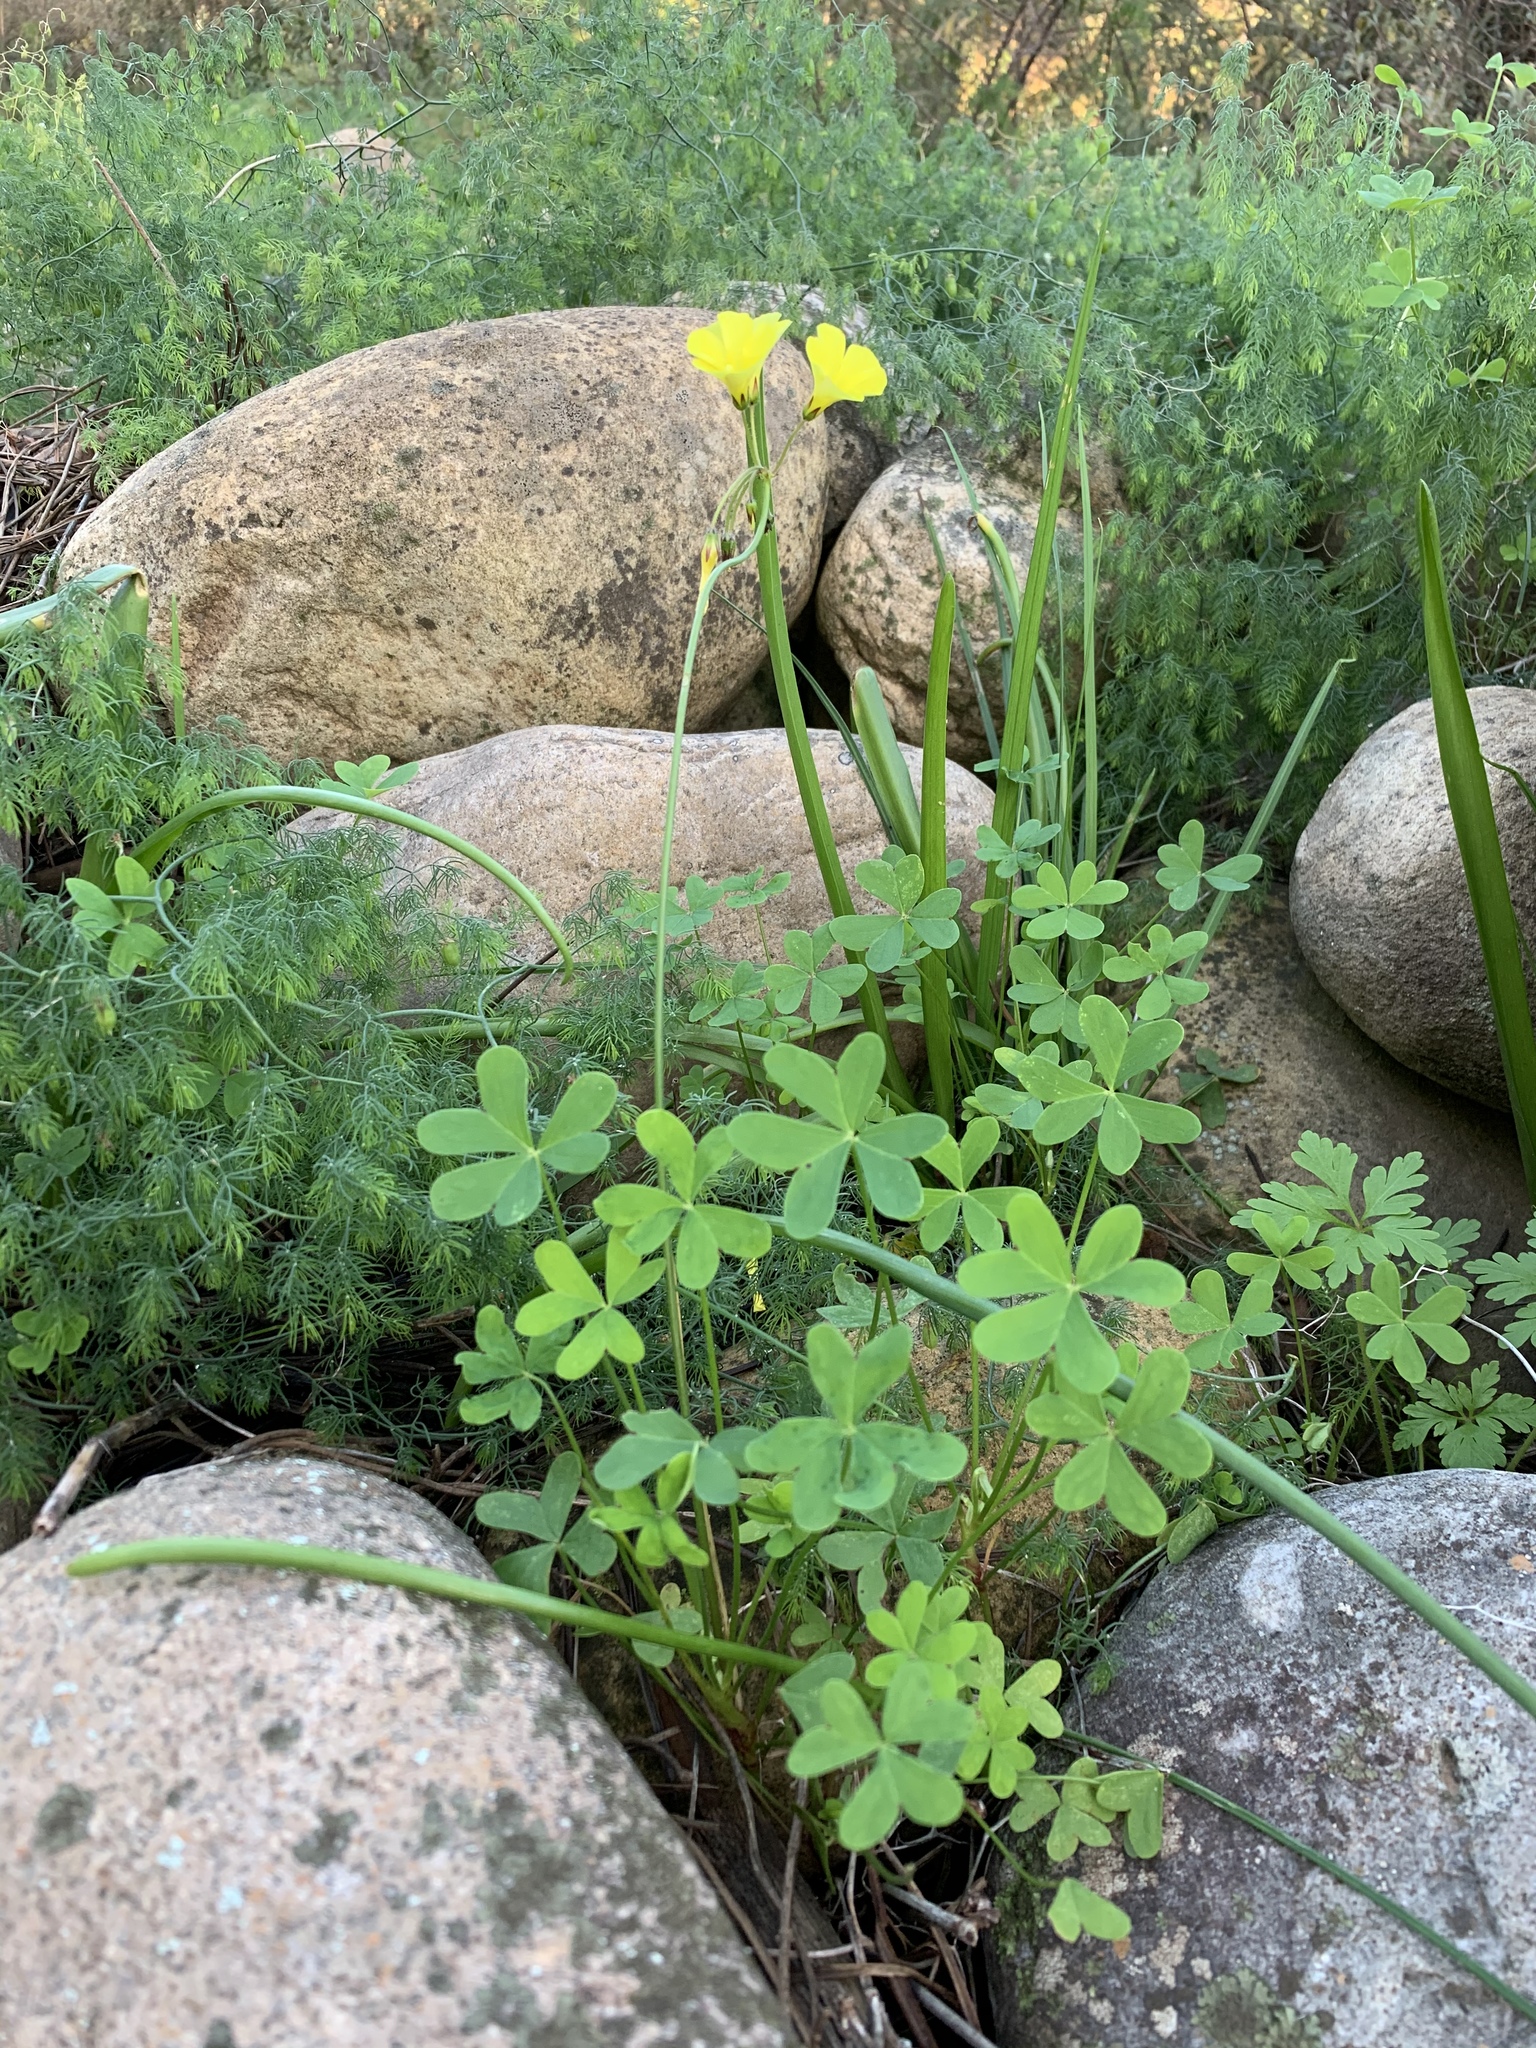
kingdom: Plantae
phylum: Tracheophyta
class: Magnoliopsida
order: Oxalidales
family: Oxalidaceae
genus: Oxalis
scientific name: Oxalis pes-caprae
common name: Bermuda-buttercup
